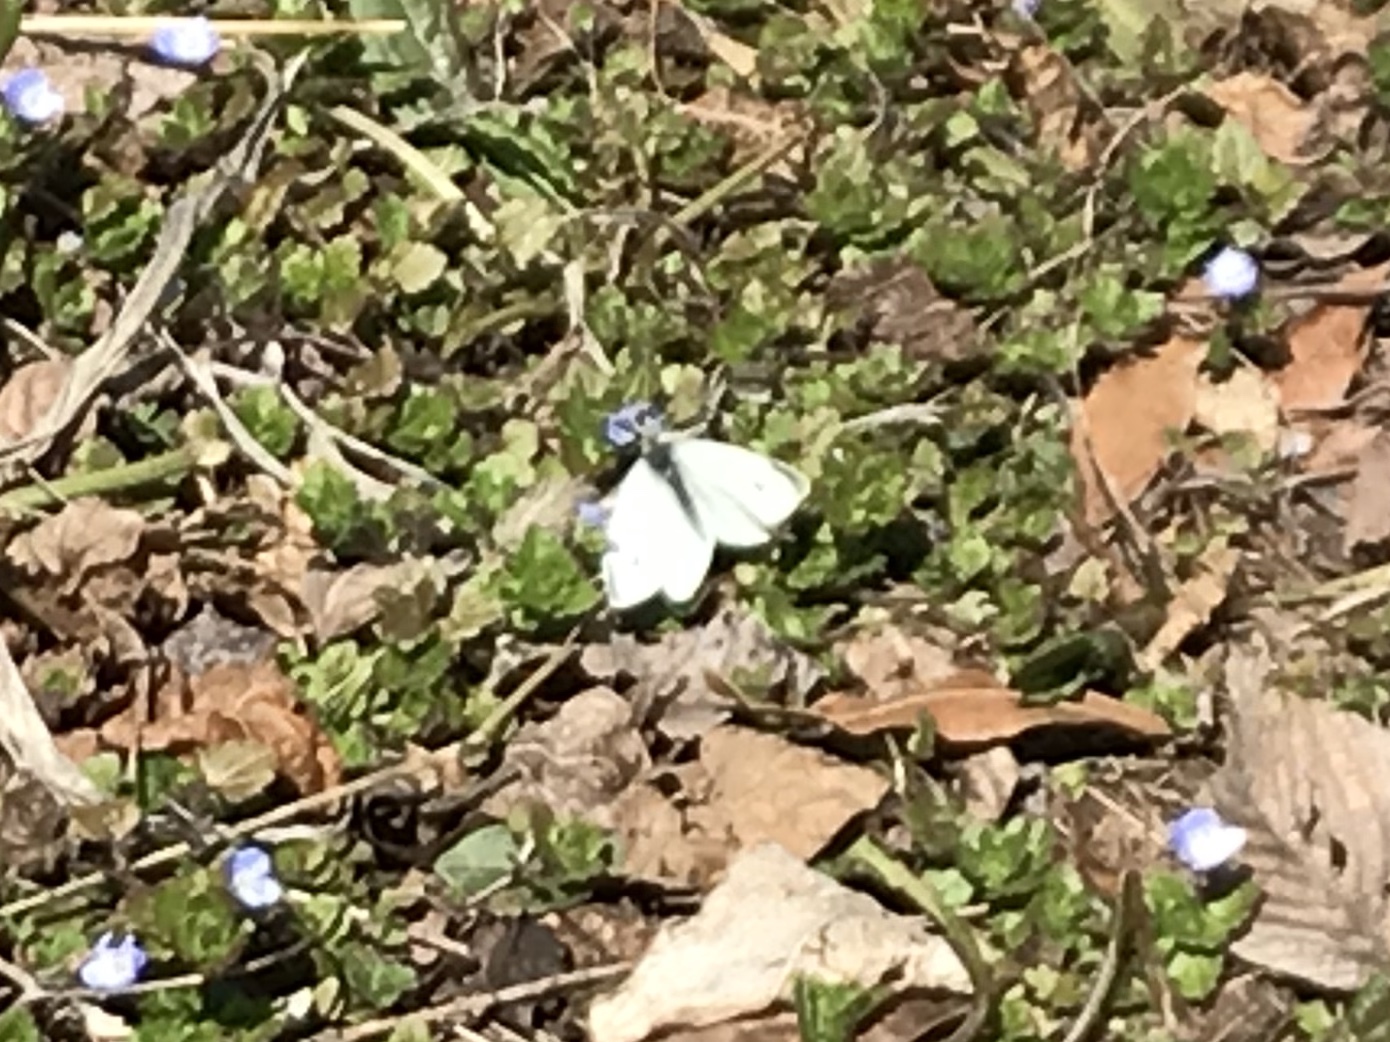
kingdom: Animalia
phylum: Arthropoda
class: Insecta
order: Lepidoptera
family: Pieridae
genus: Pieris
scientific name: Pieris rapae
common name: Small white
